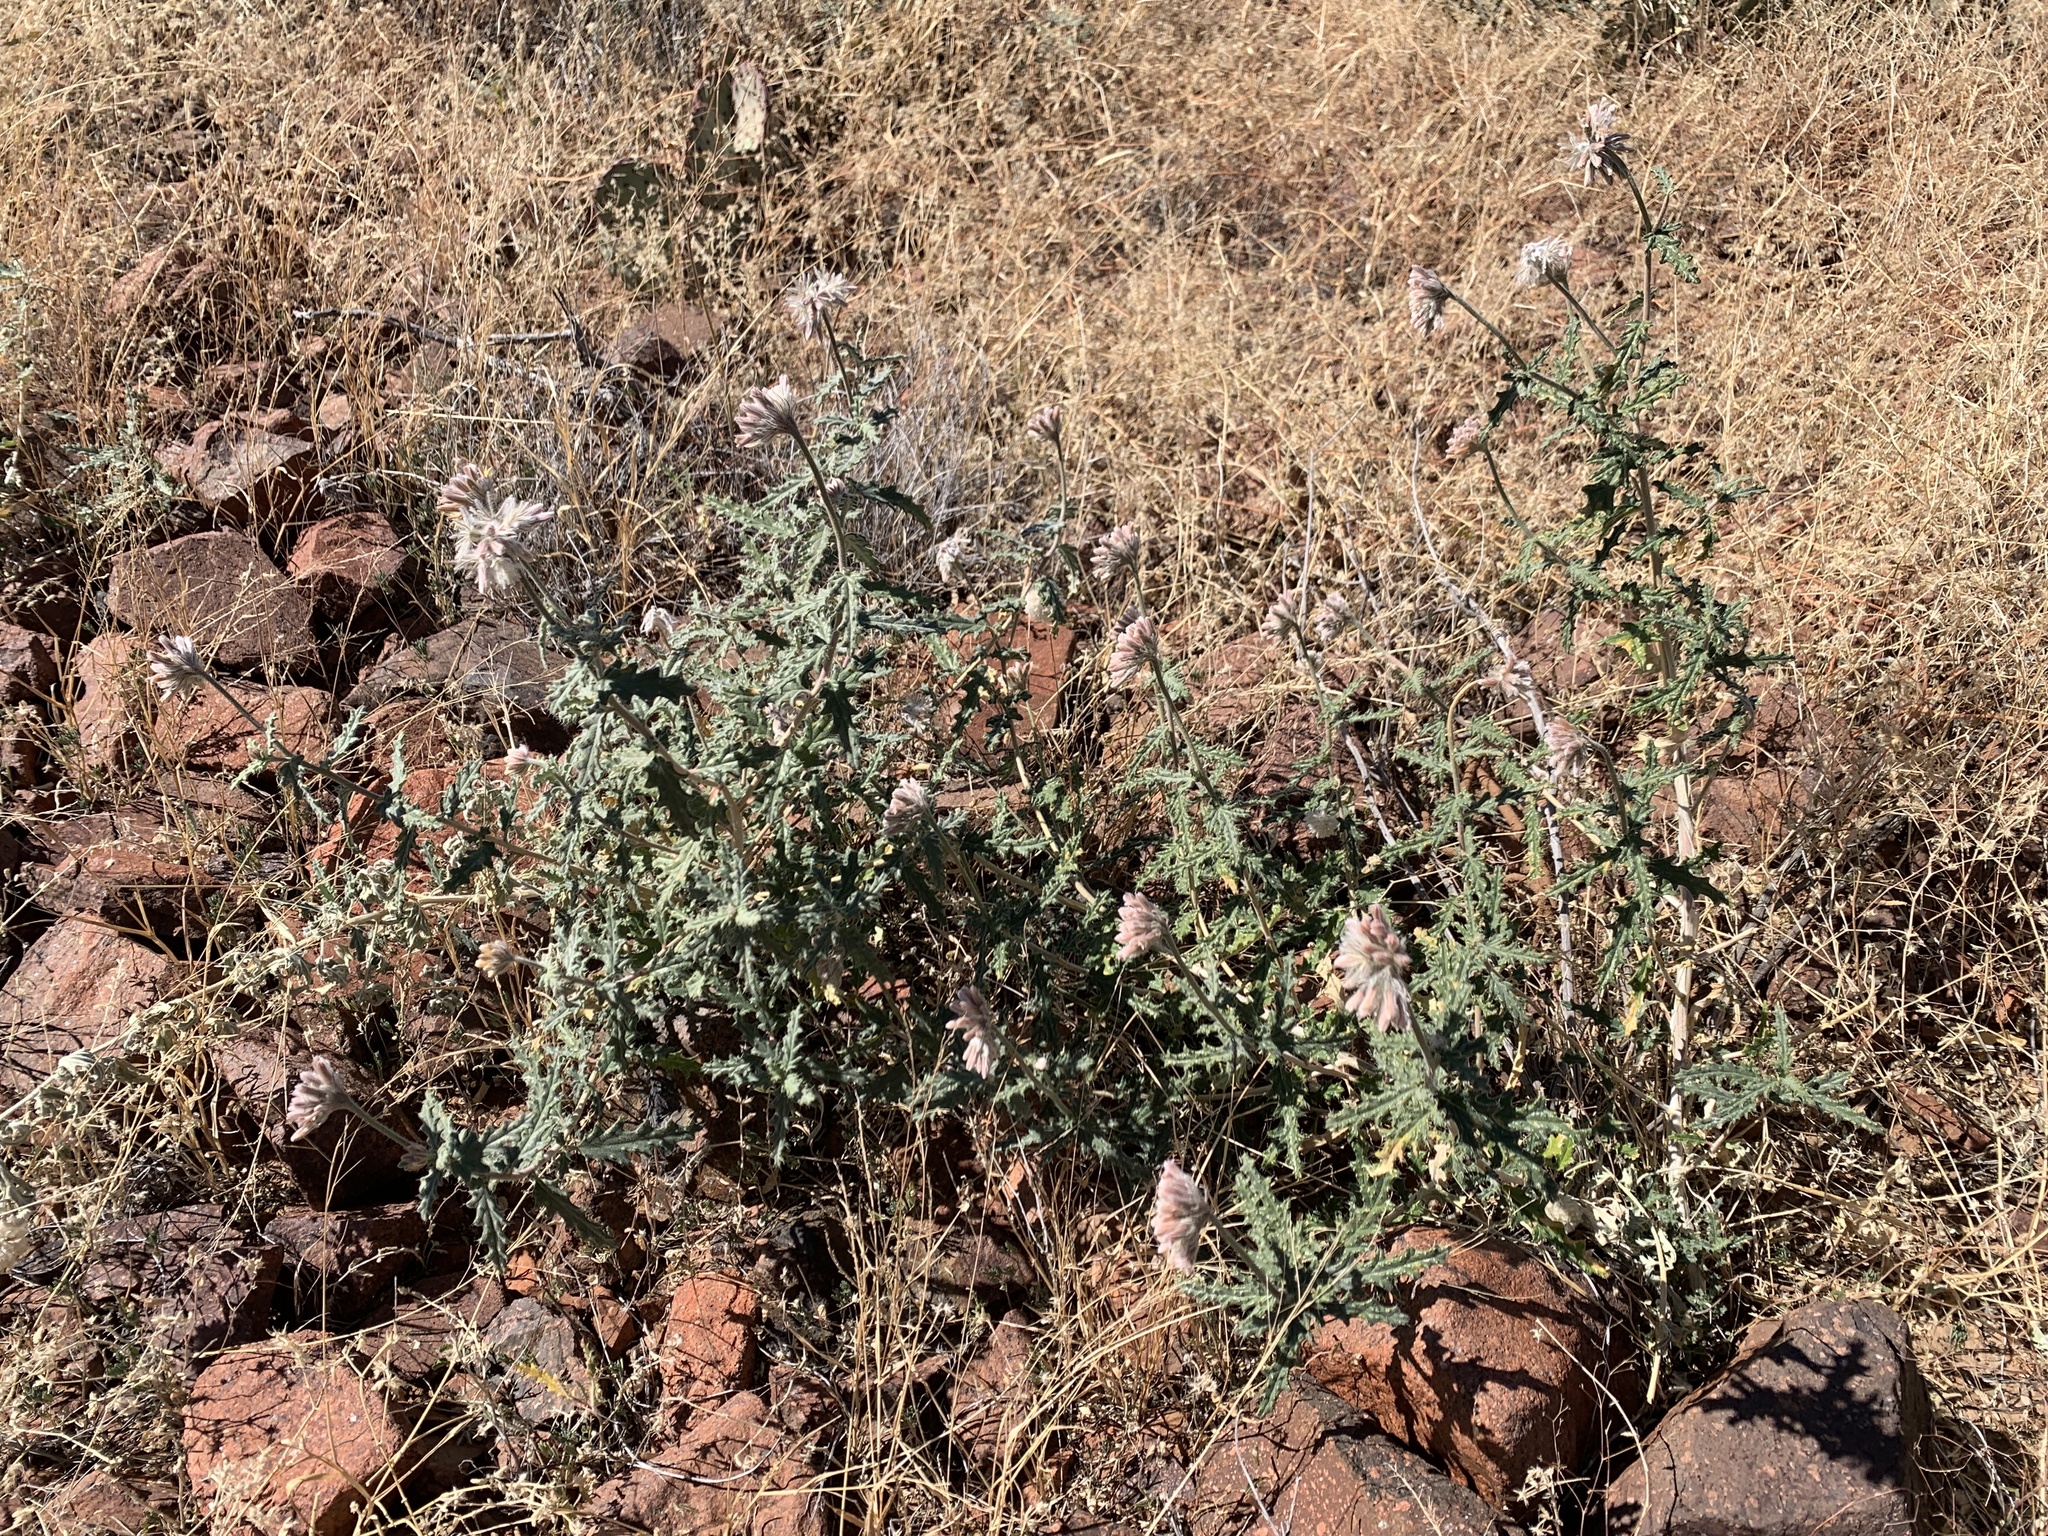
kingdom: Plantae
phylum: Tracheophyta
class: Magnoliopsida
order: Cornales
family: Loasaceae
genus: Cevallia
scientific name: Cevallia sinuata
